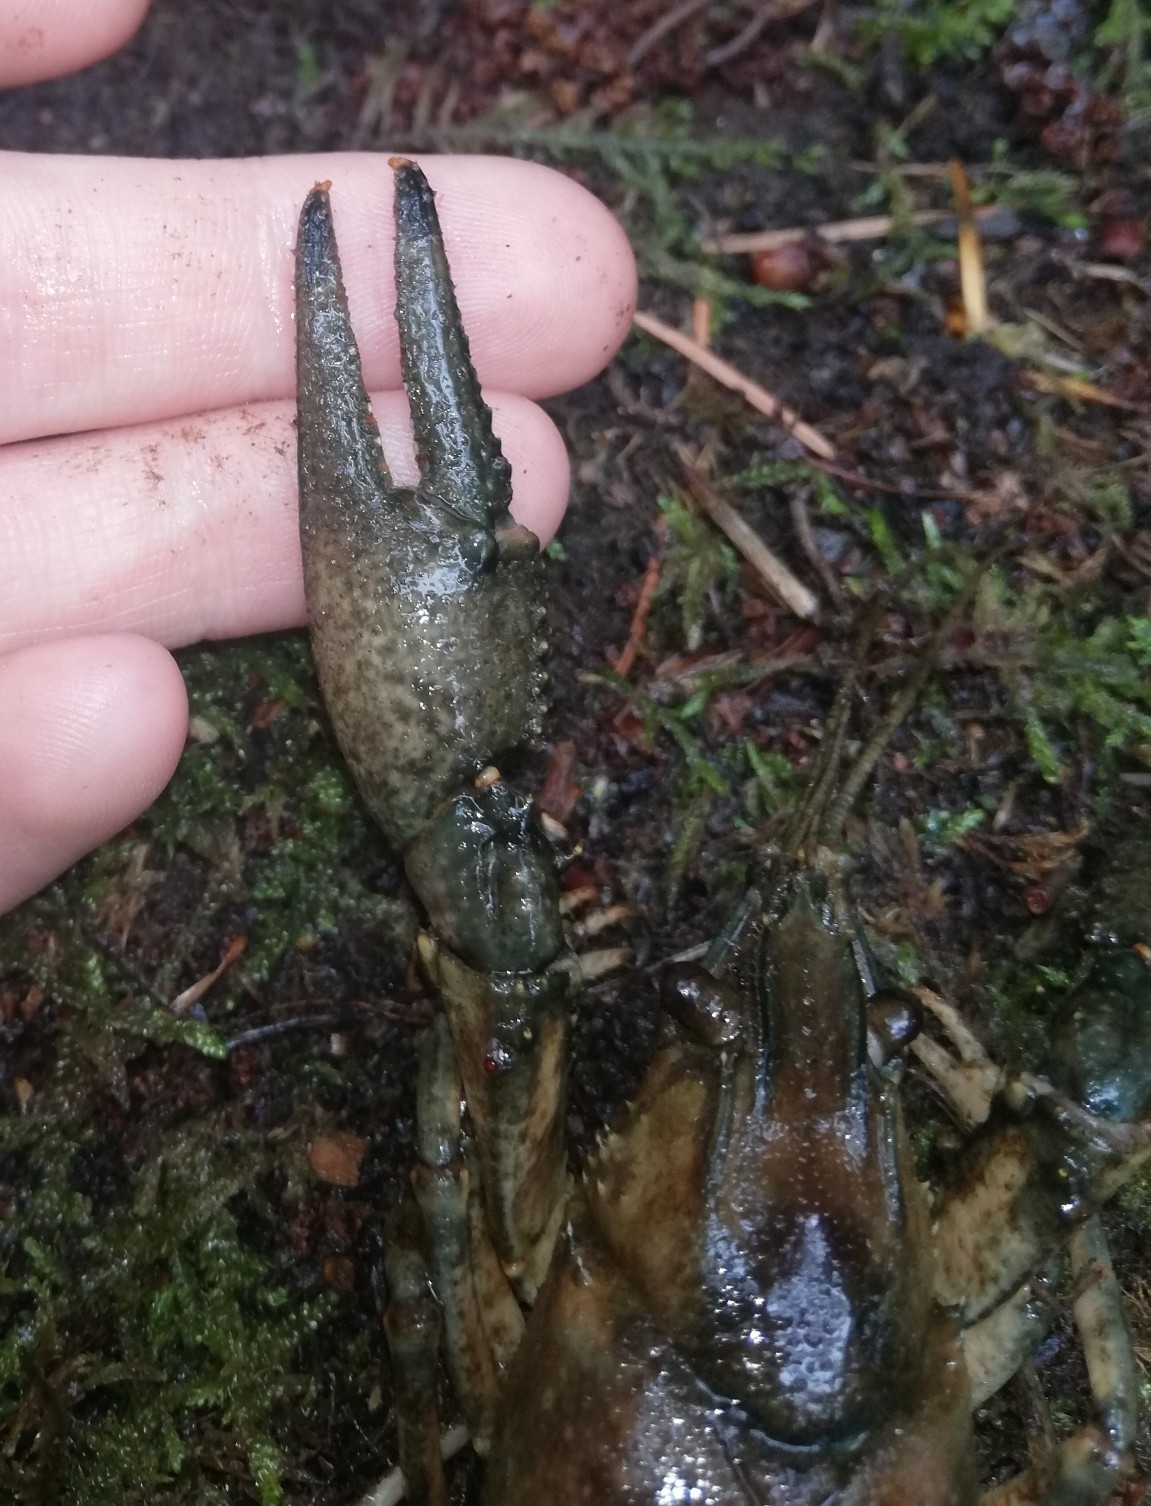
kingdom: Animalia
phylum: Arthropoda
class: Malacostraca
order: Decapoda
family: Cambaridae
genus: Faxonius
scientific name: Faxonius limosus
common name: American crayfish
